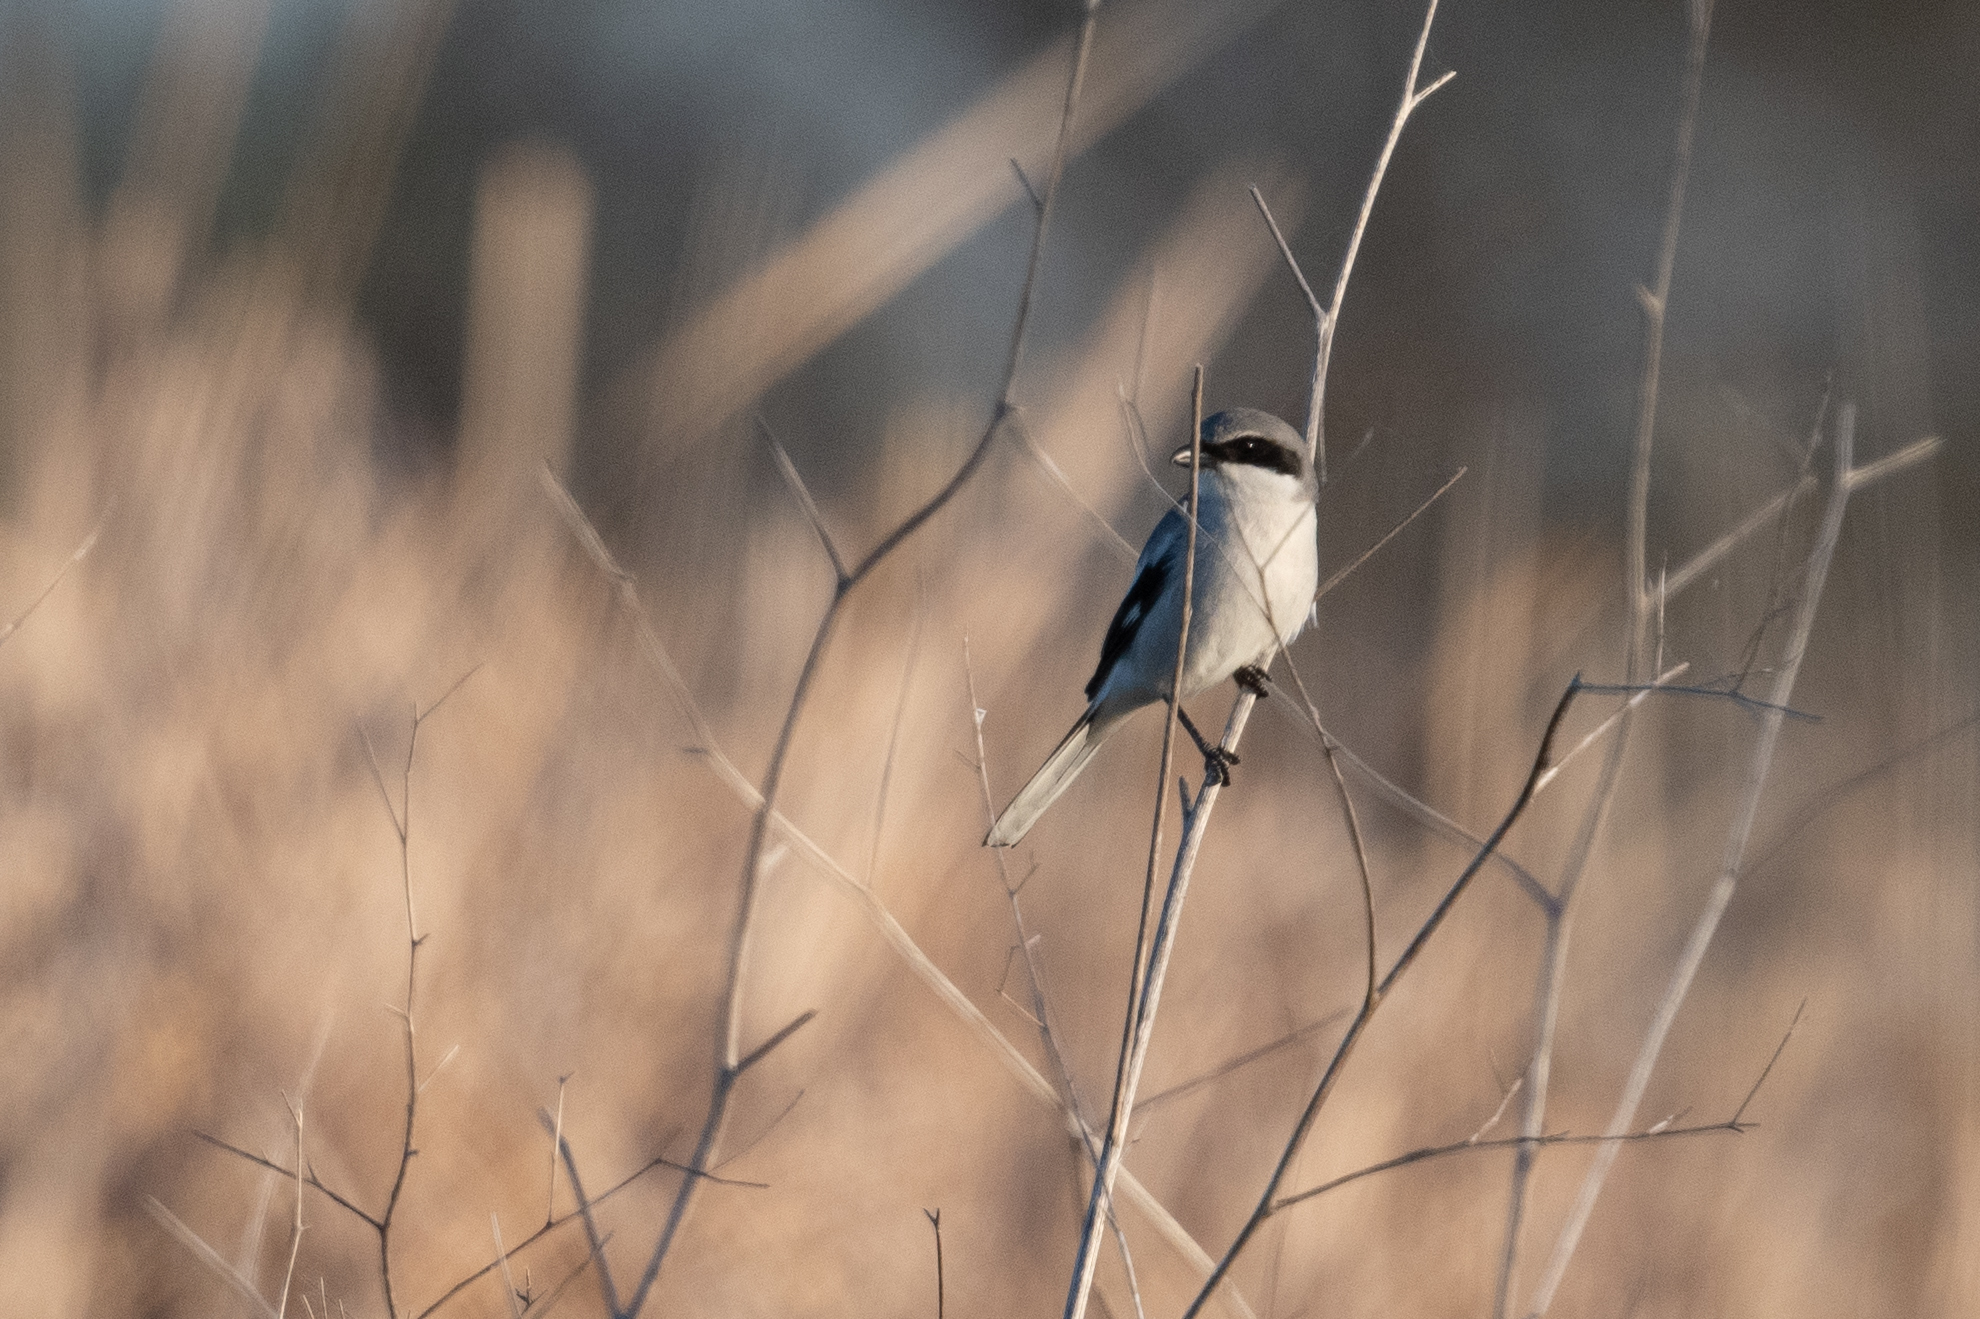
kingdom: Animalia
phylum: Chordata
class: Aves
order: Passeriformes
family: Laniidae
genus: Lanius
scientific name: Lanius ludovicianus
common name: Loggerhead shrike
